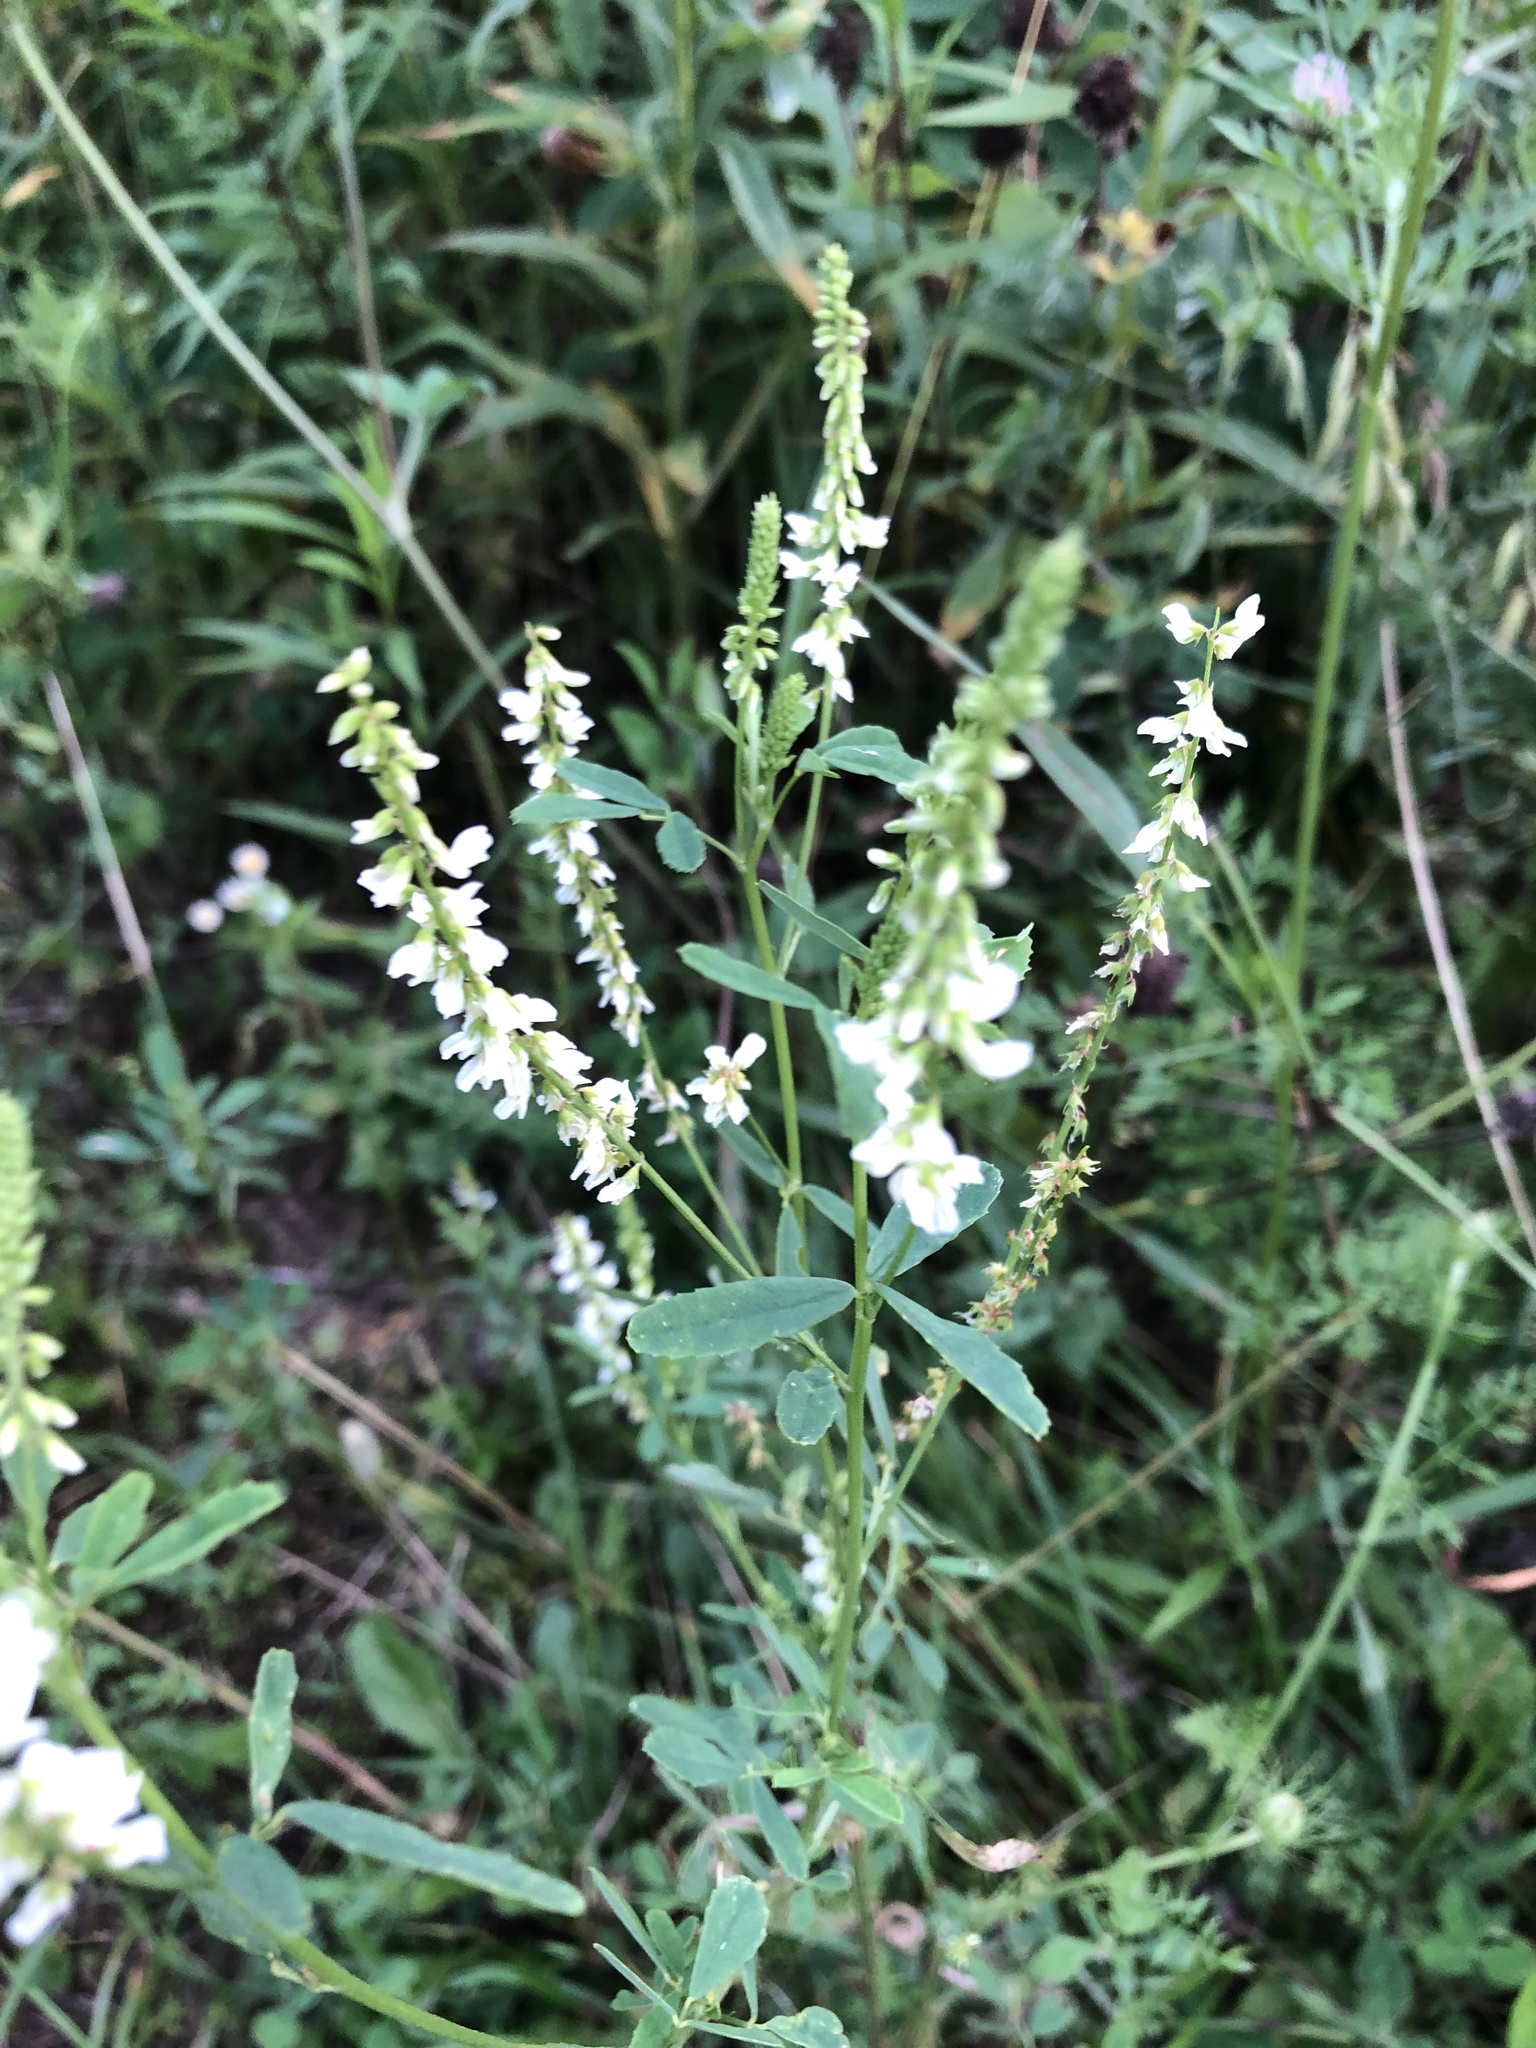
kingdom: Plantae
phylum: Tracheophyta
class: Magnoliopsida
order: Fabales
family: Fabaceae
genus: Melilotus
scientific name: Melilotus albus
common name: White melilot
